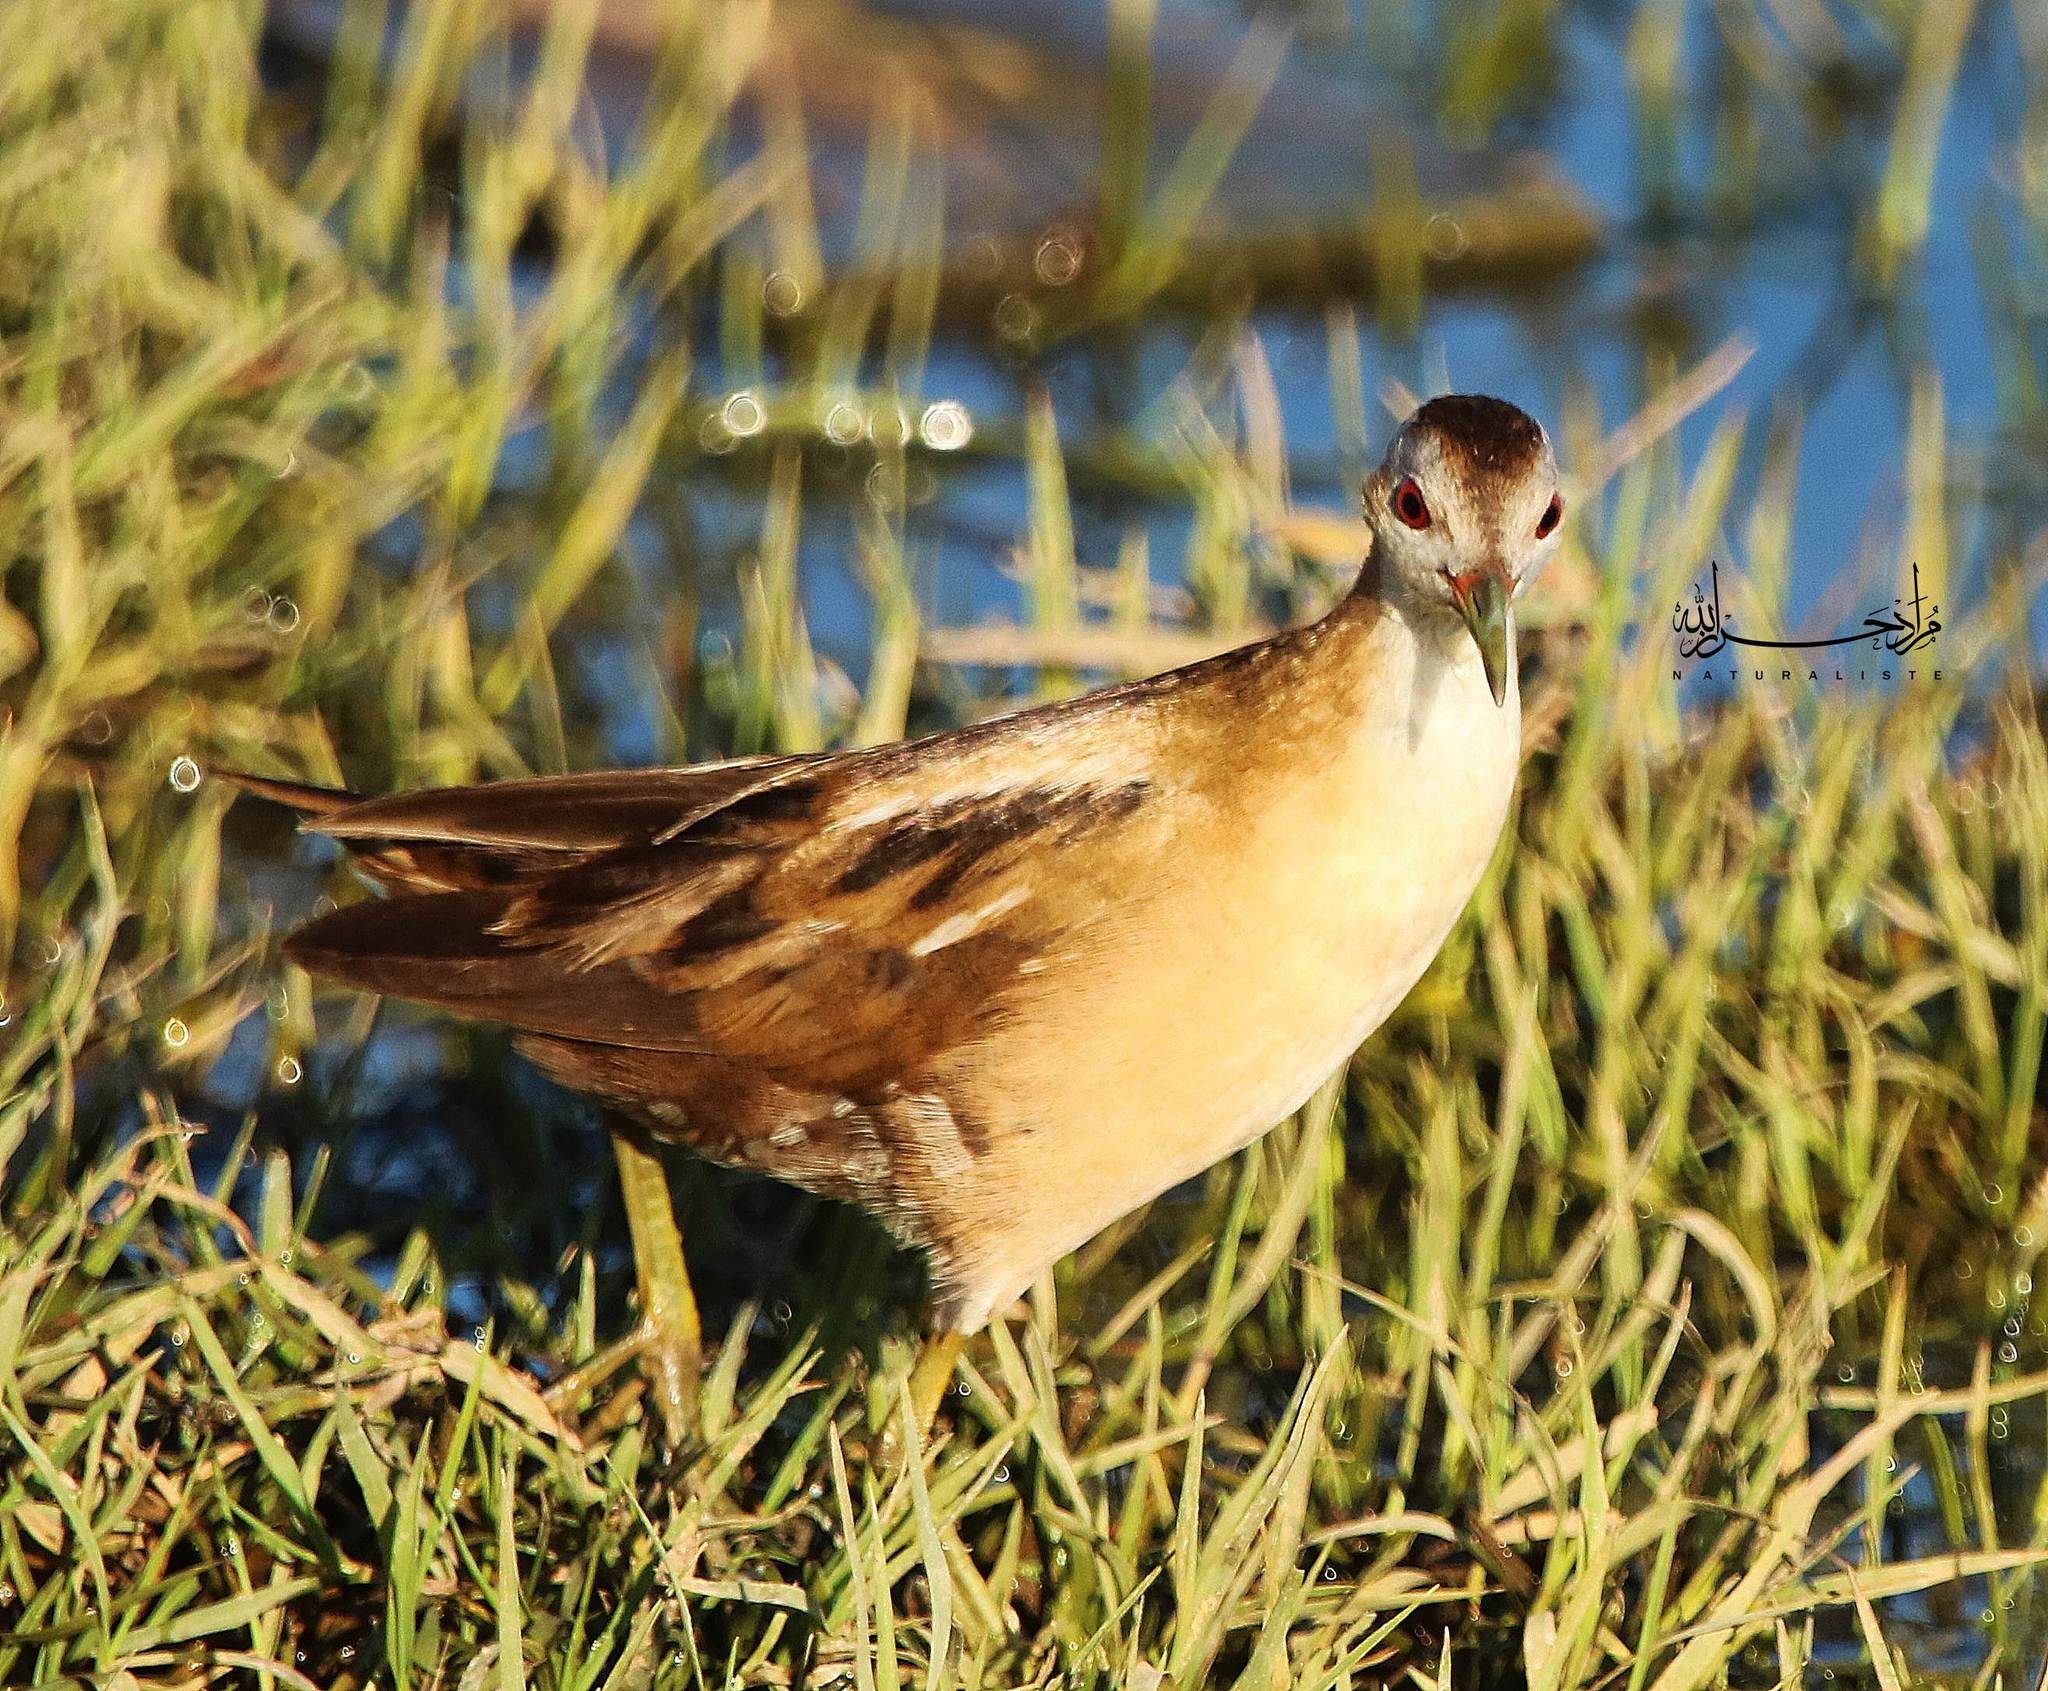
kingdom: Animalia
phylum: Chordata
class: Aves
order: Gruiformes
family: Rallidae
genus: Porzana
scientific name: Porzana parva
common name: Little crake
